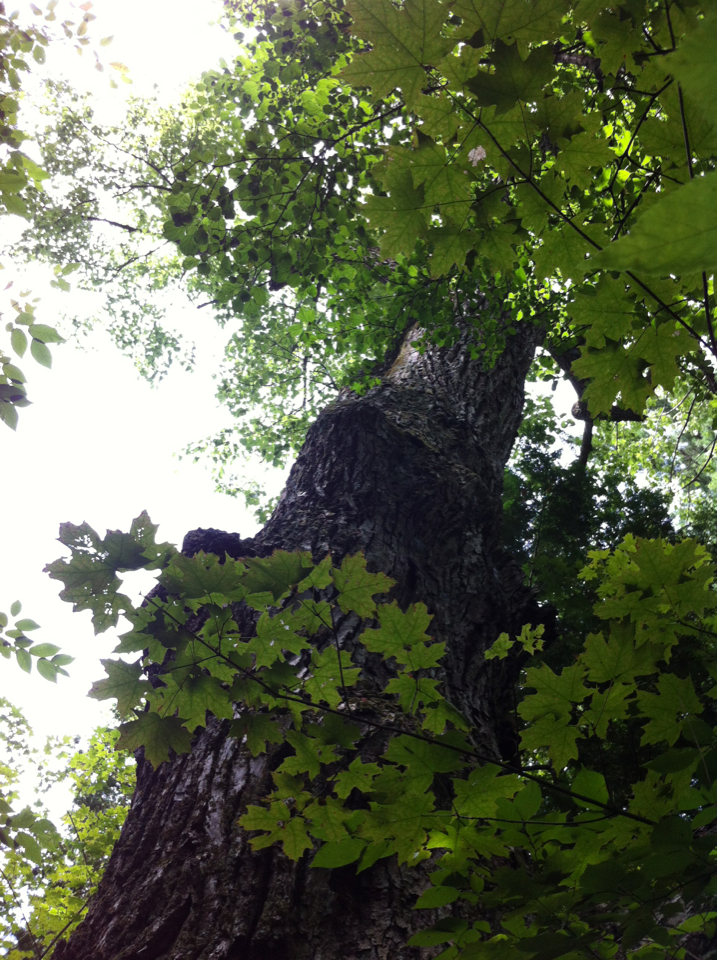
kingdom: Plantae
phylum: Tracheophyta
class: Magnoliopsida
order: Malvales
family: Malvaceae
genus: Tilia
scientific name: Tilia americana
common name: Basswood
